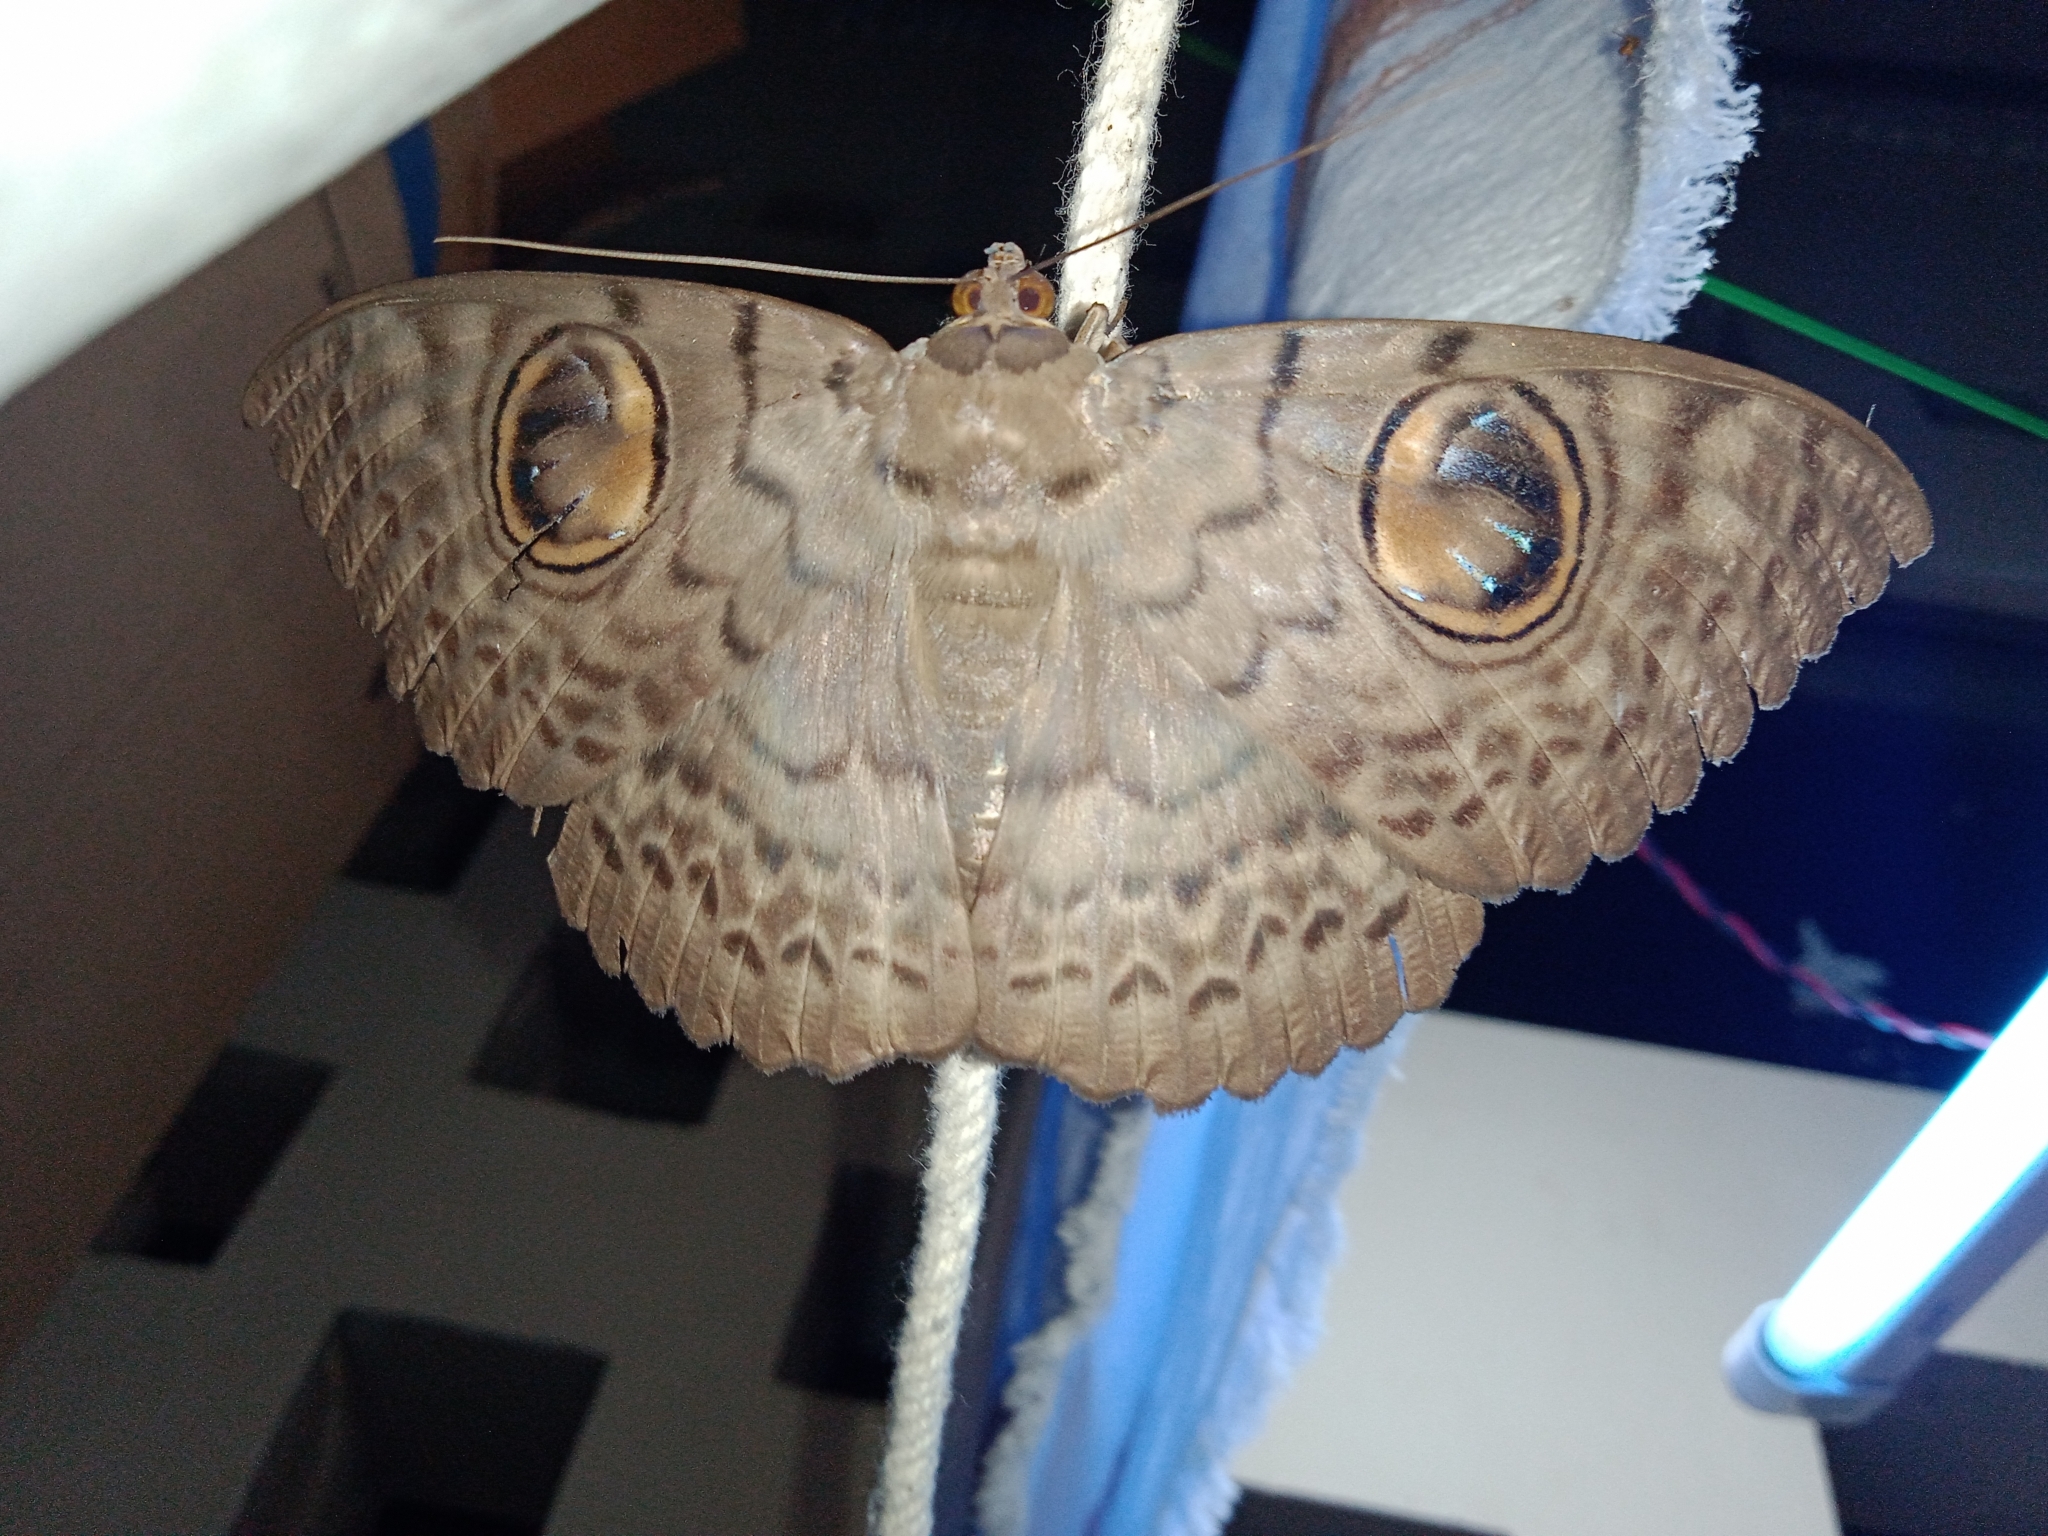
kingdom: Animalia
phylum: Arthropoda
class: Insecta
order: Lepidoptera
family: Erebidae
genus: Erebus
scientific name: Erebus macrops
